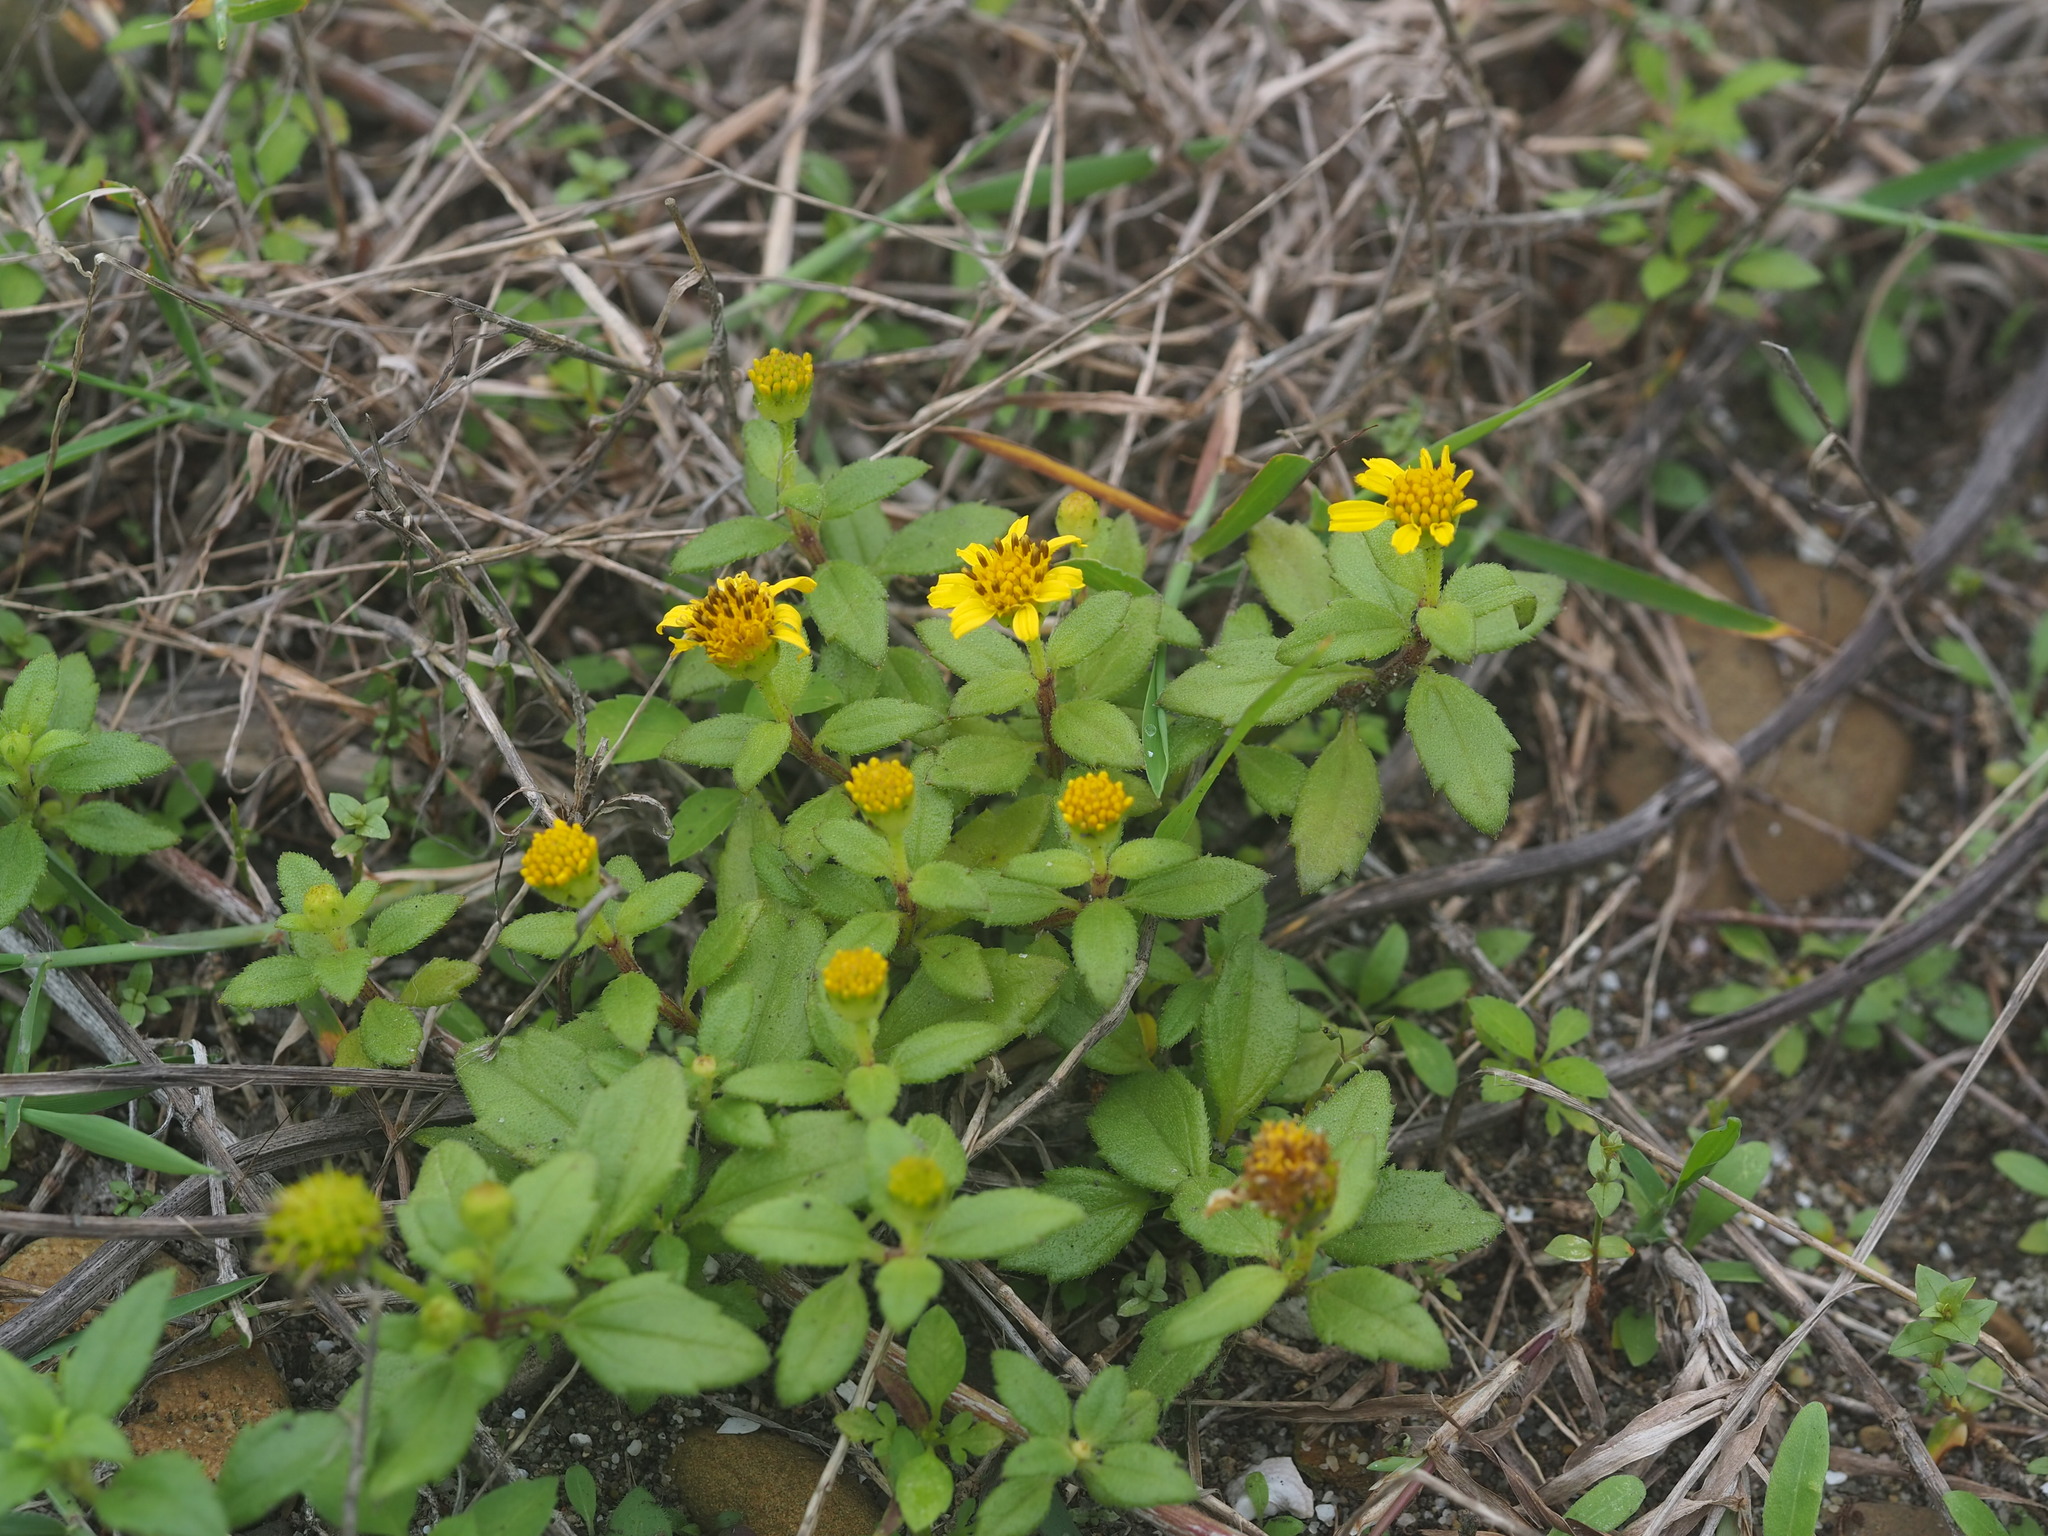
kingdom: Plantae
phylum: Tracheophyta
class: Magnoliopsida
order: Asterales
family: Asteraceae
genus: Melanthera
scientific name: Melanthera prostrata
